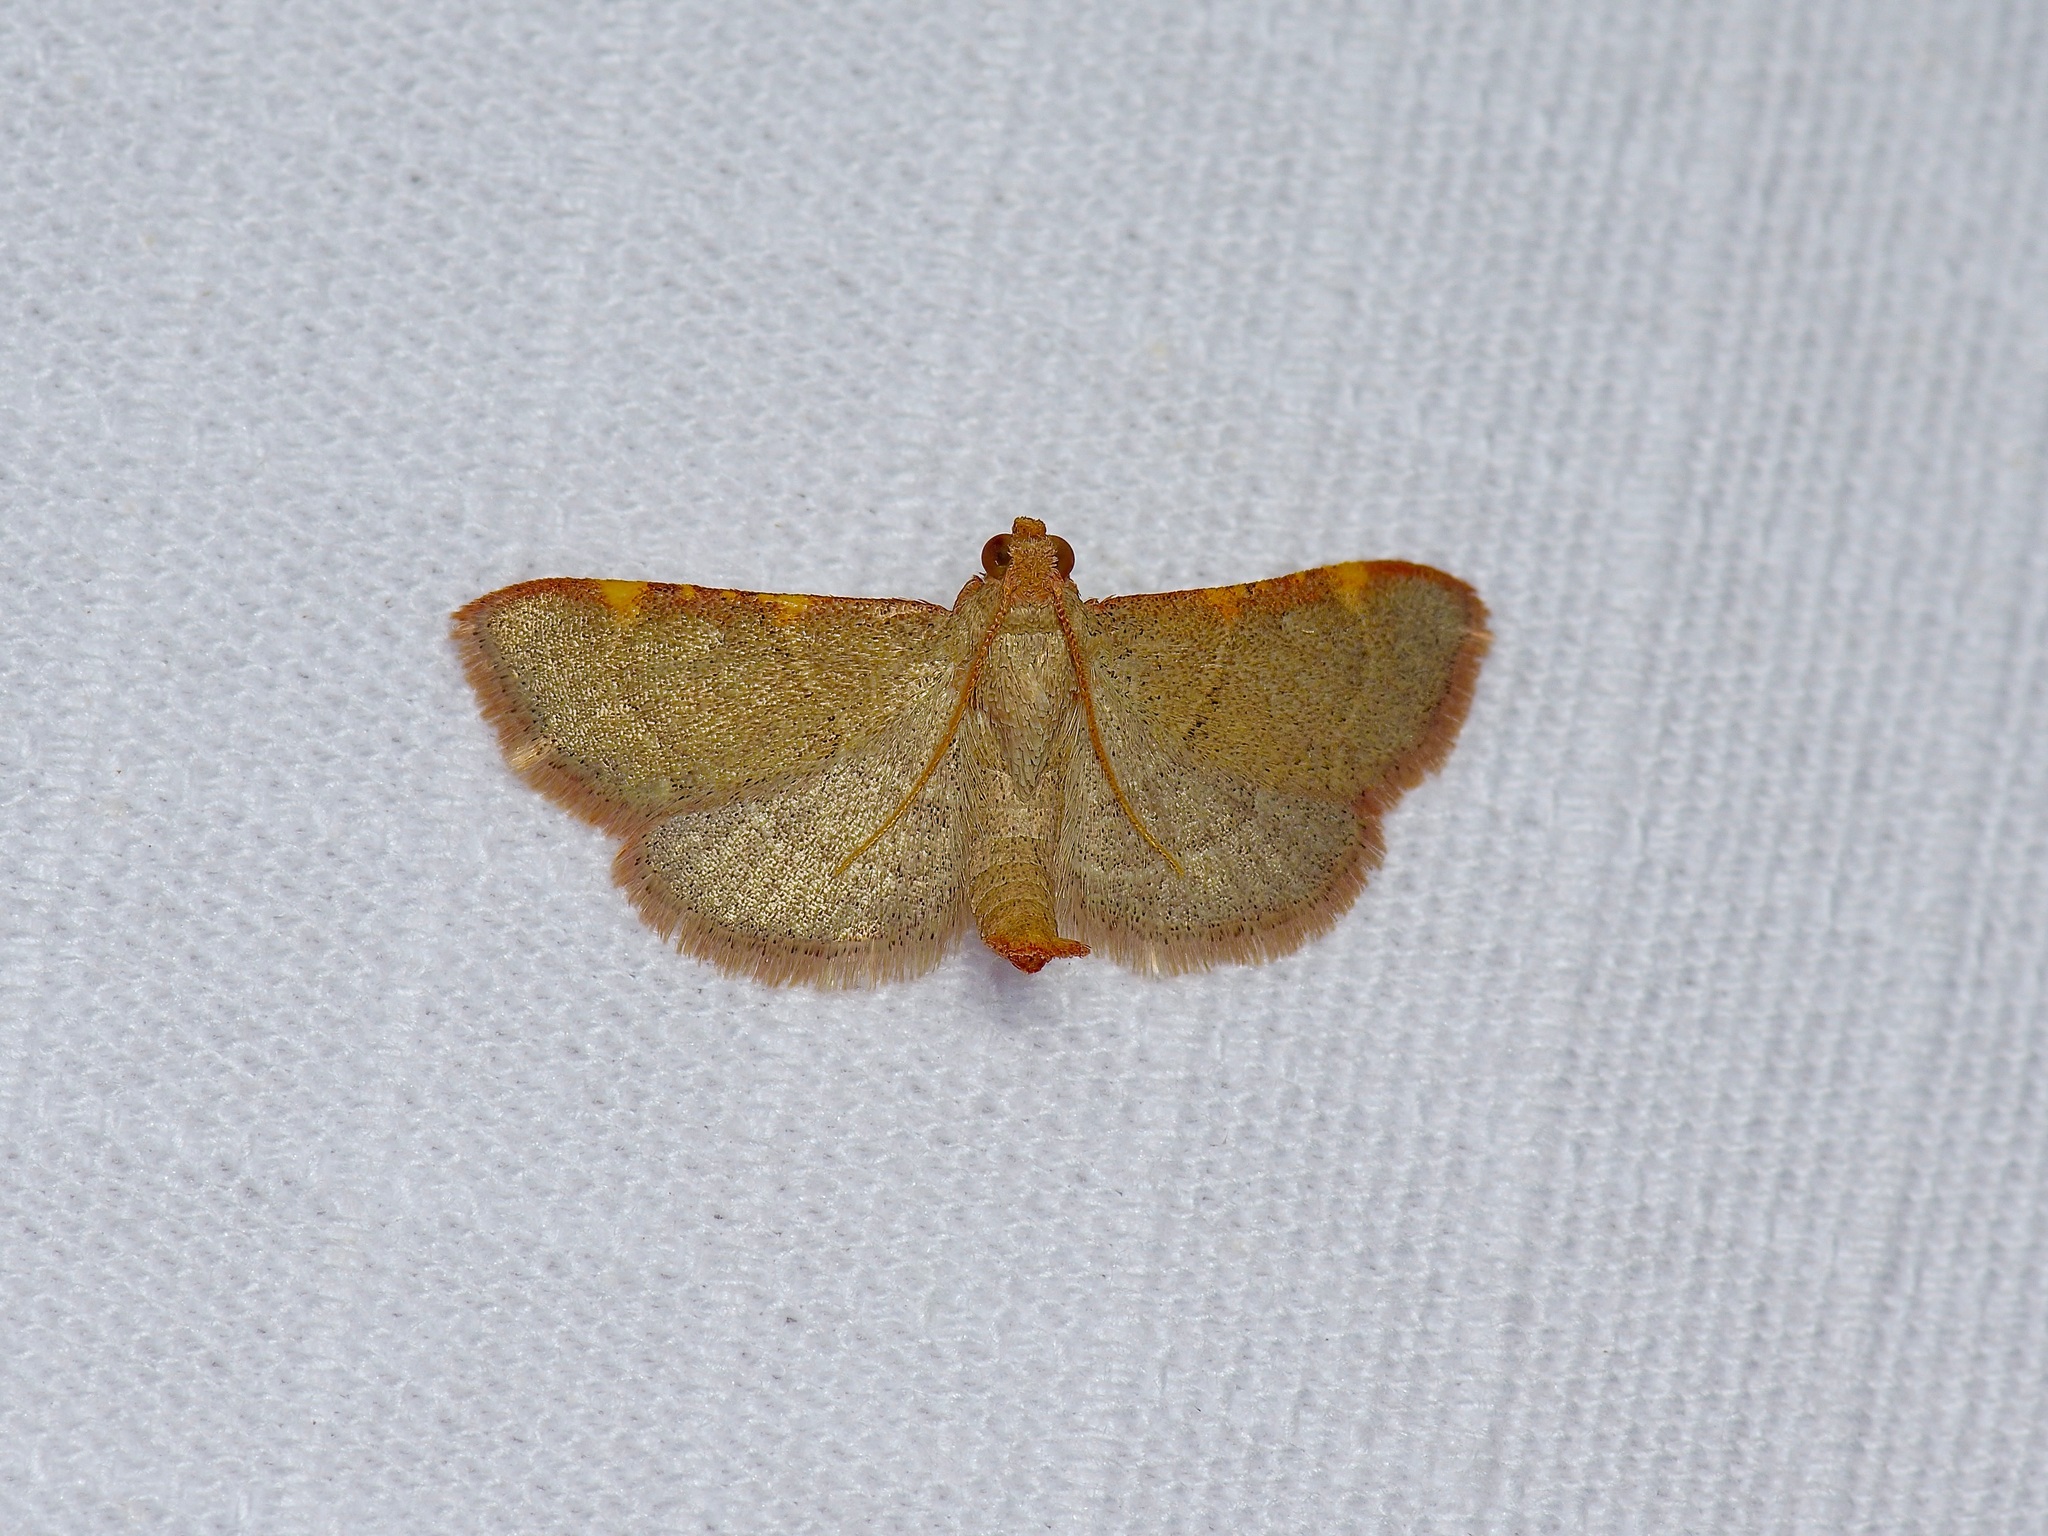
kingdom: Animalia
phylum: Arthropoda
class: Insecta
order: Lepidoptera
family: Pyralidae
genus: Hypsopygia
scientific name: Hypsopygia binodulalis
